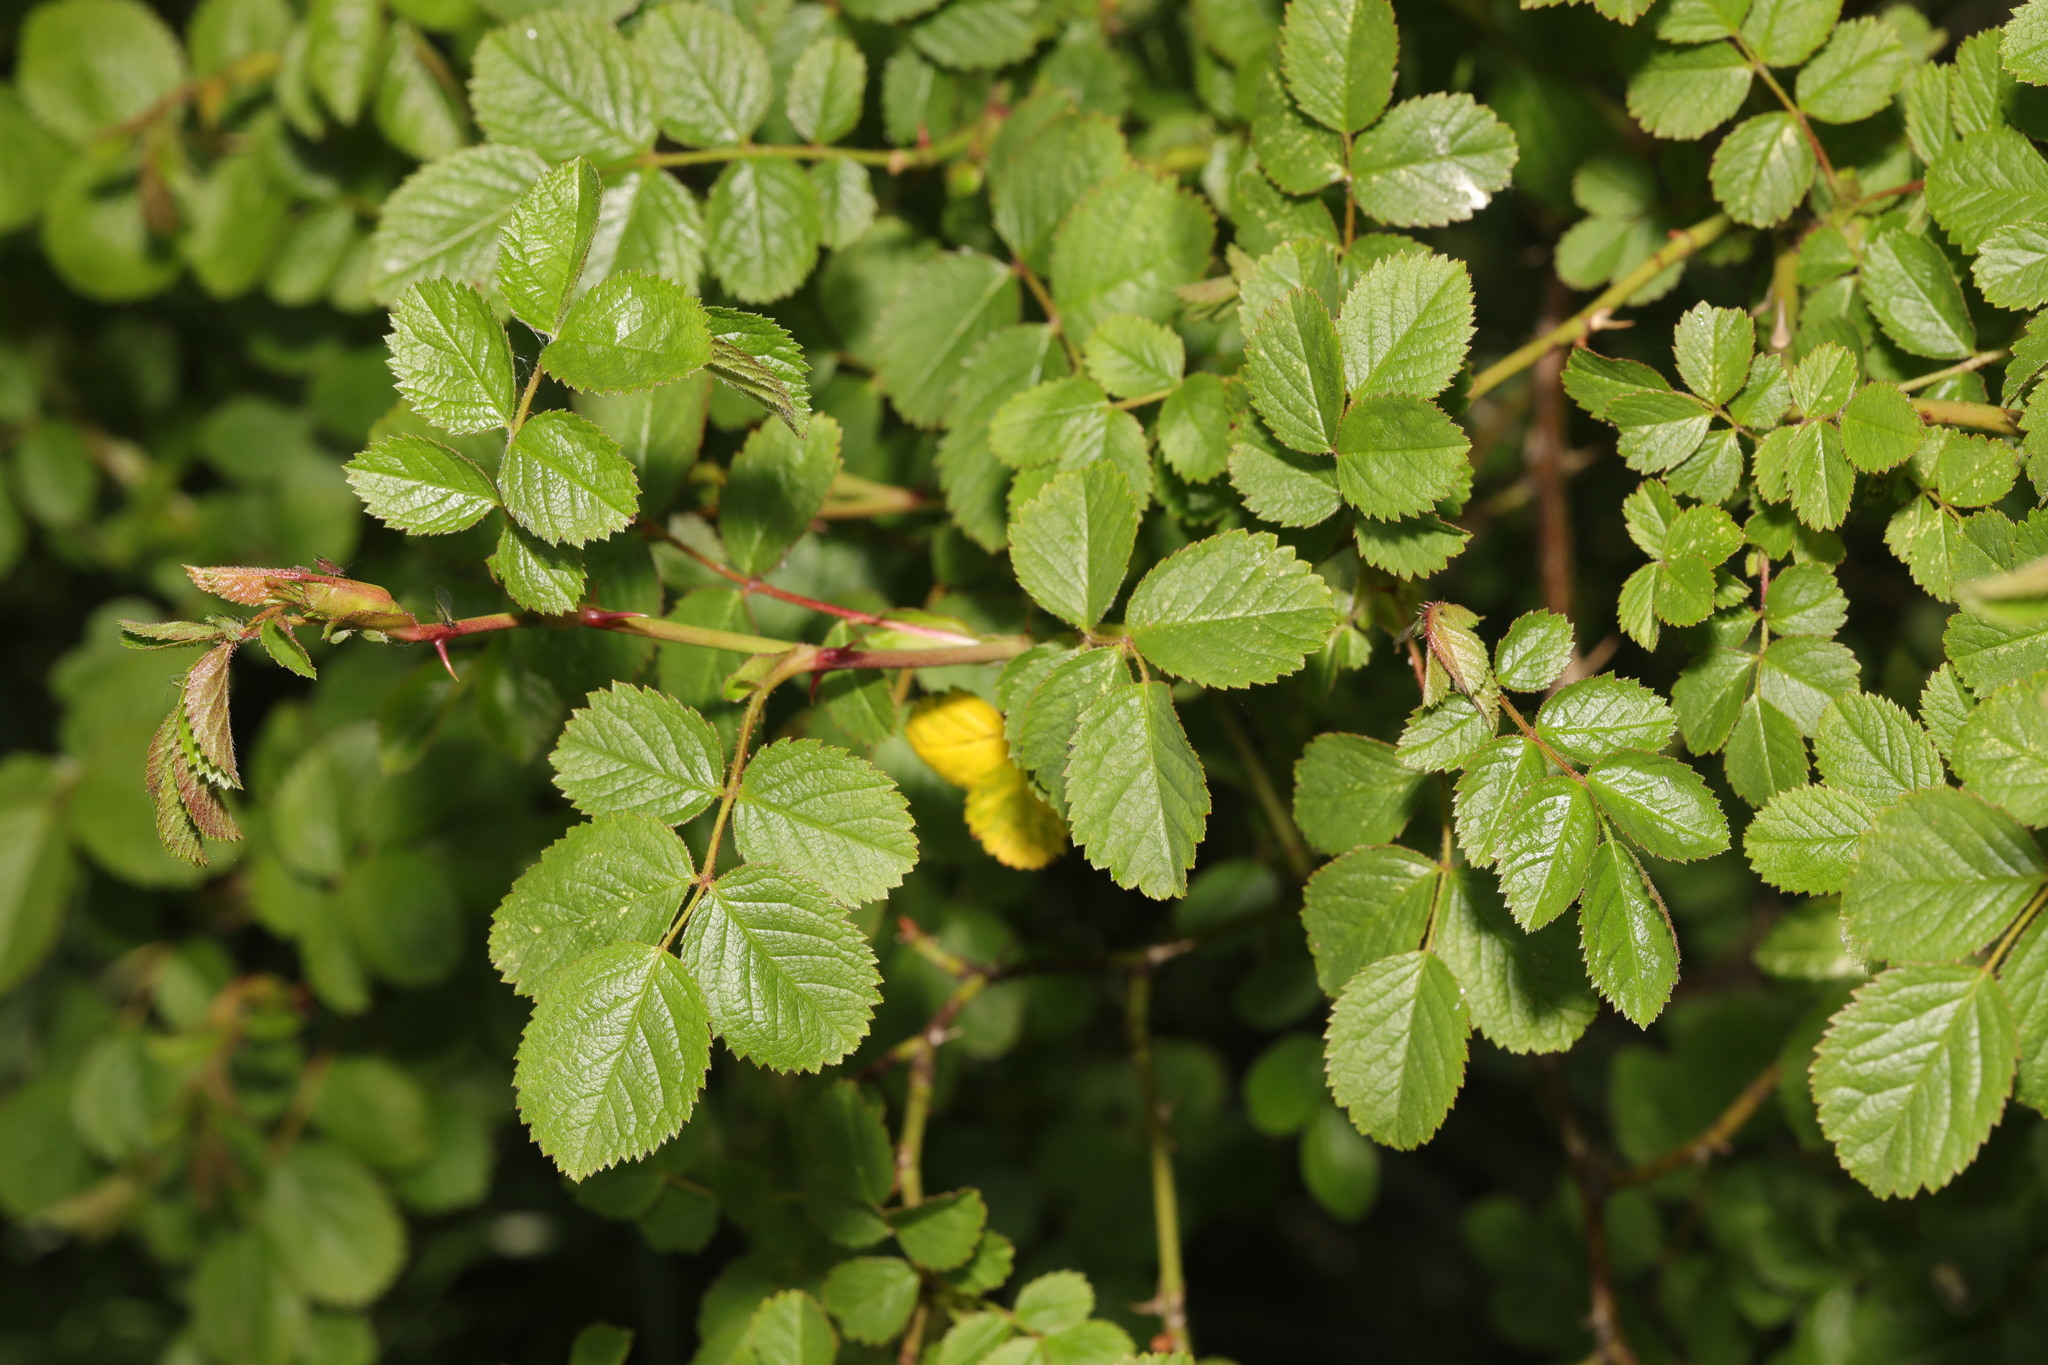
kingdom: Plantae
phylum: Tracheophyta
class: Magnoliopsida
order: Rosales
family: Rosaceae
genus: Rosa
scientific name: Rosa canina
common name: Dog rose
